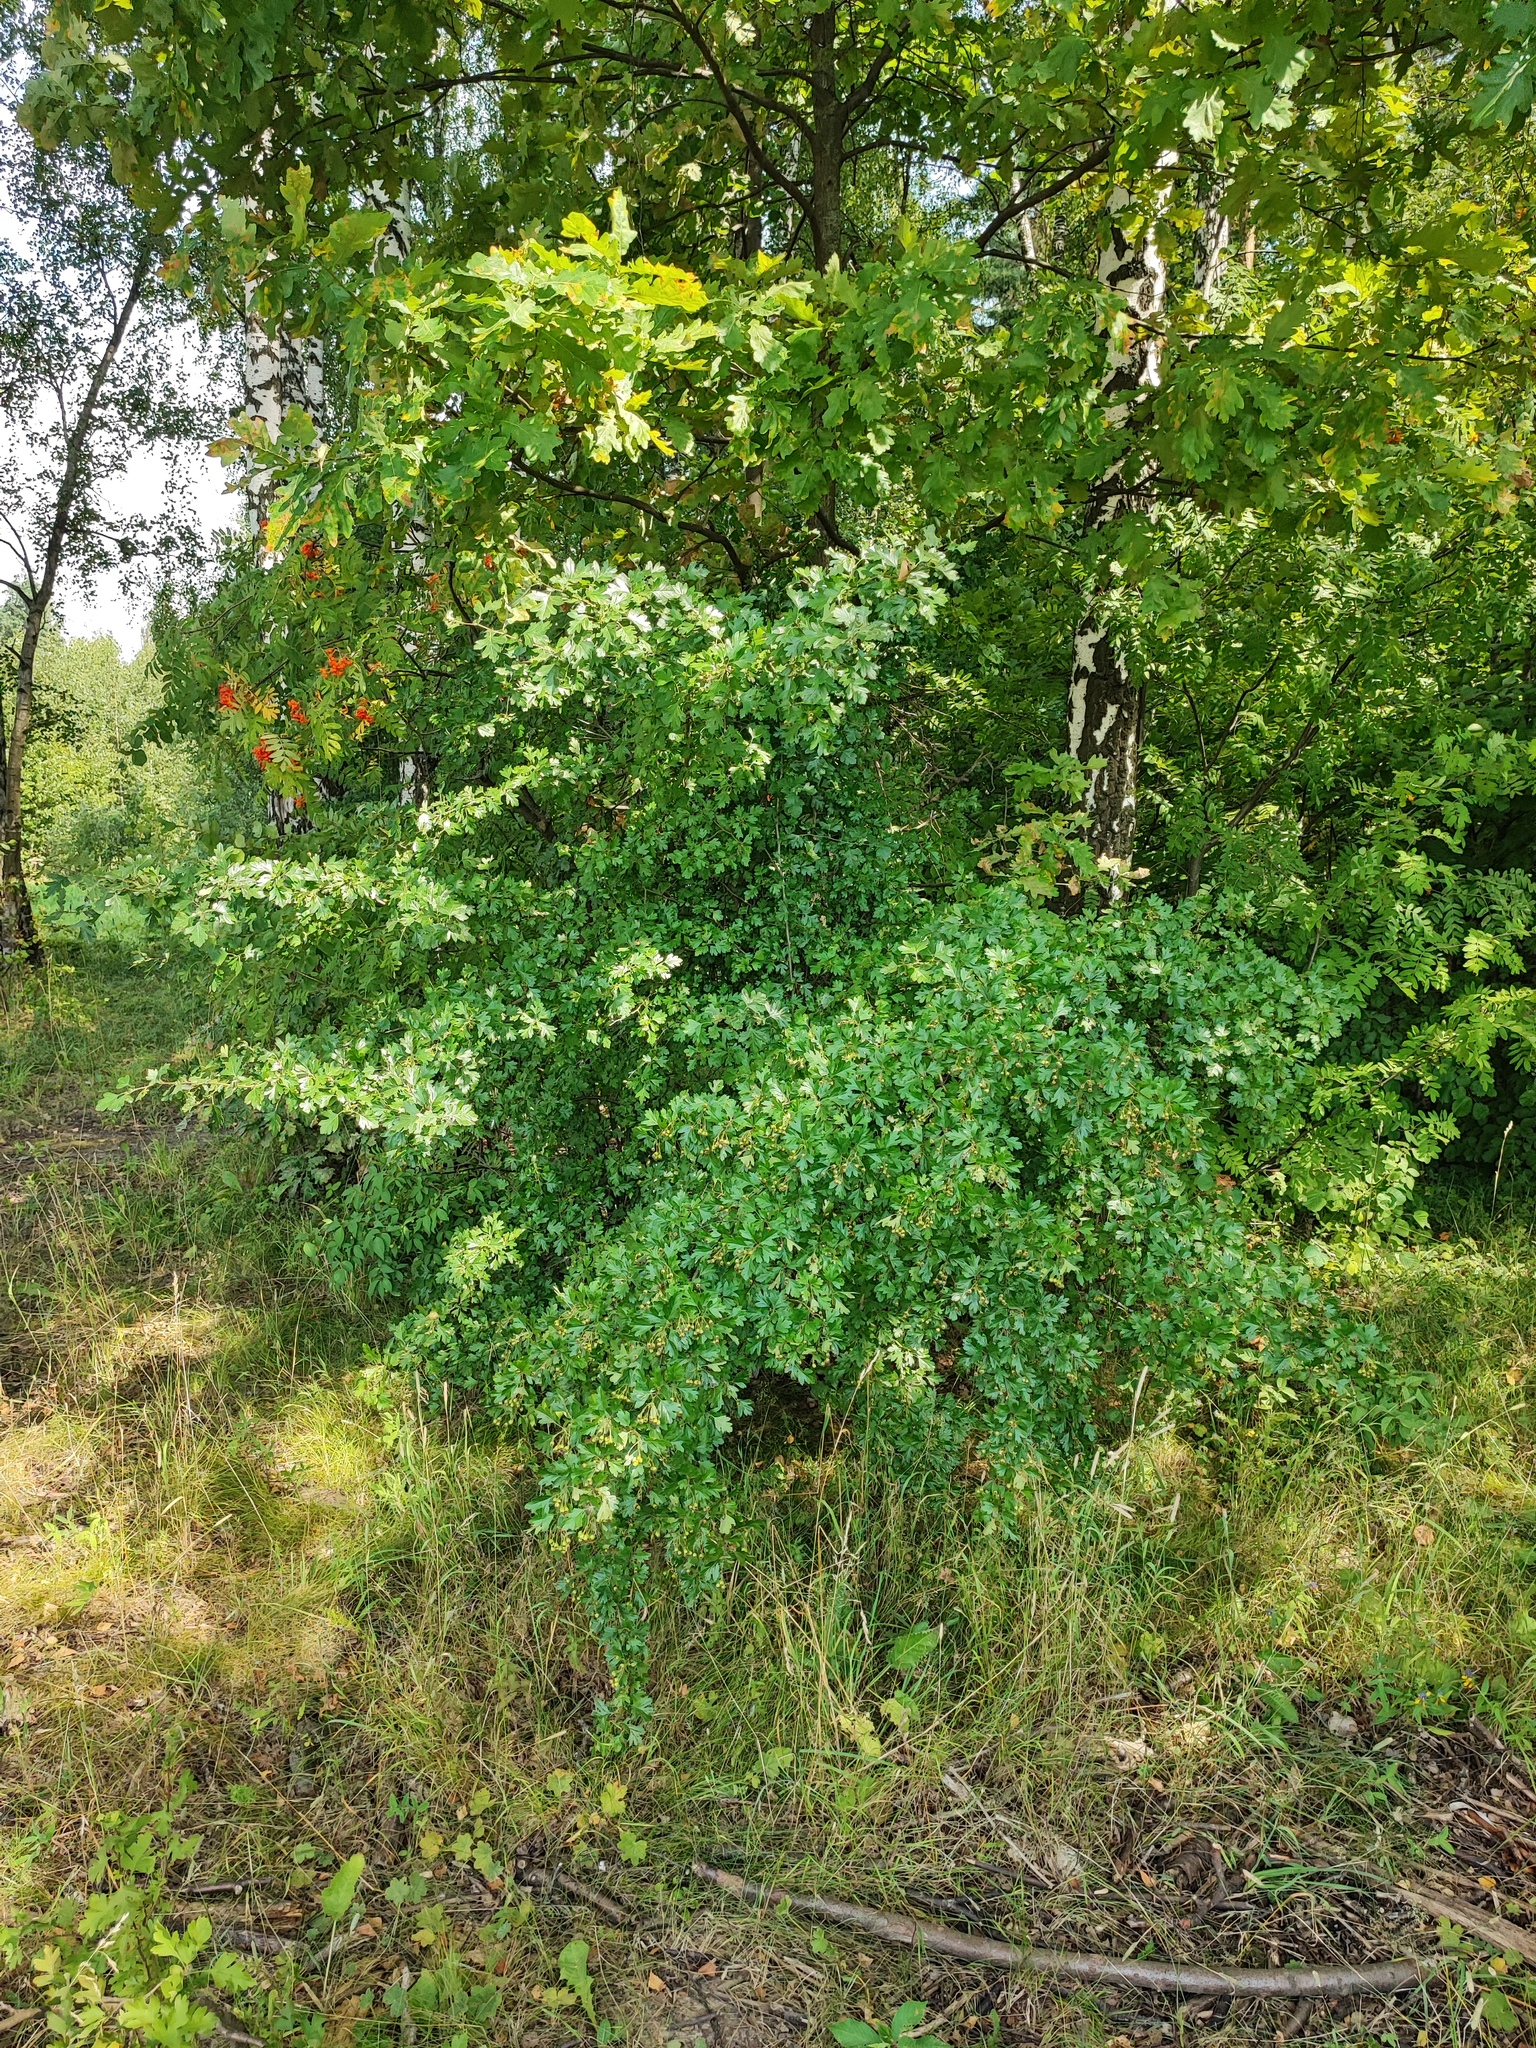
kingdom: Plantae
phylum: Tracheophyta
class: Magnoliopsida
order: Rosales
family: Rosaceae
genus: Crataegus
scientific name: Crataegus monogyna
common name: Hawthorn
